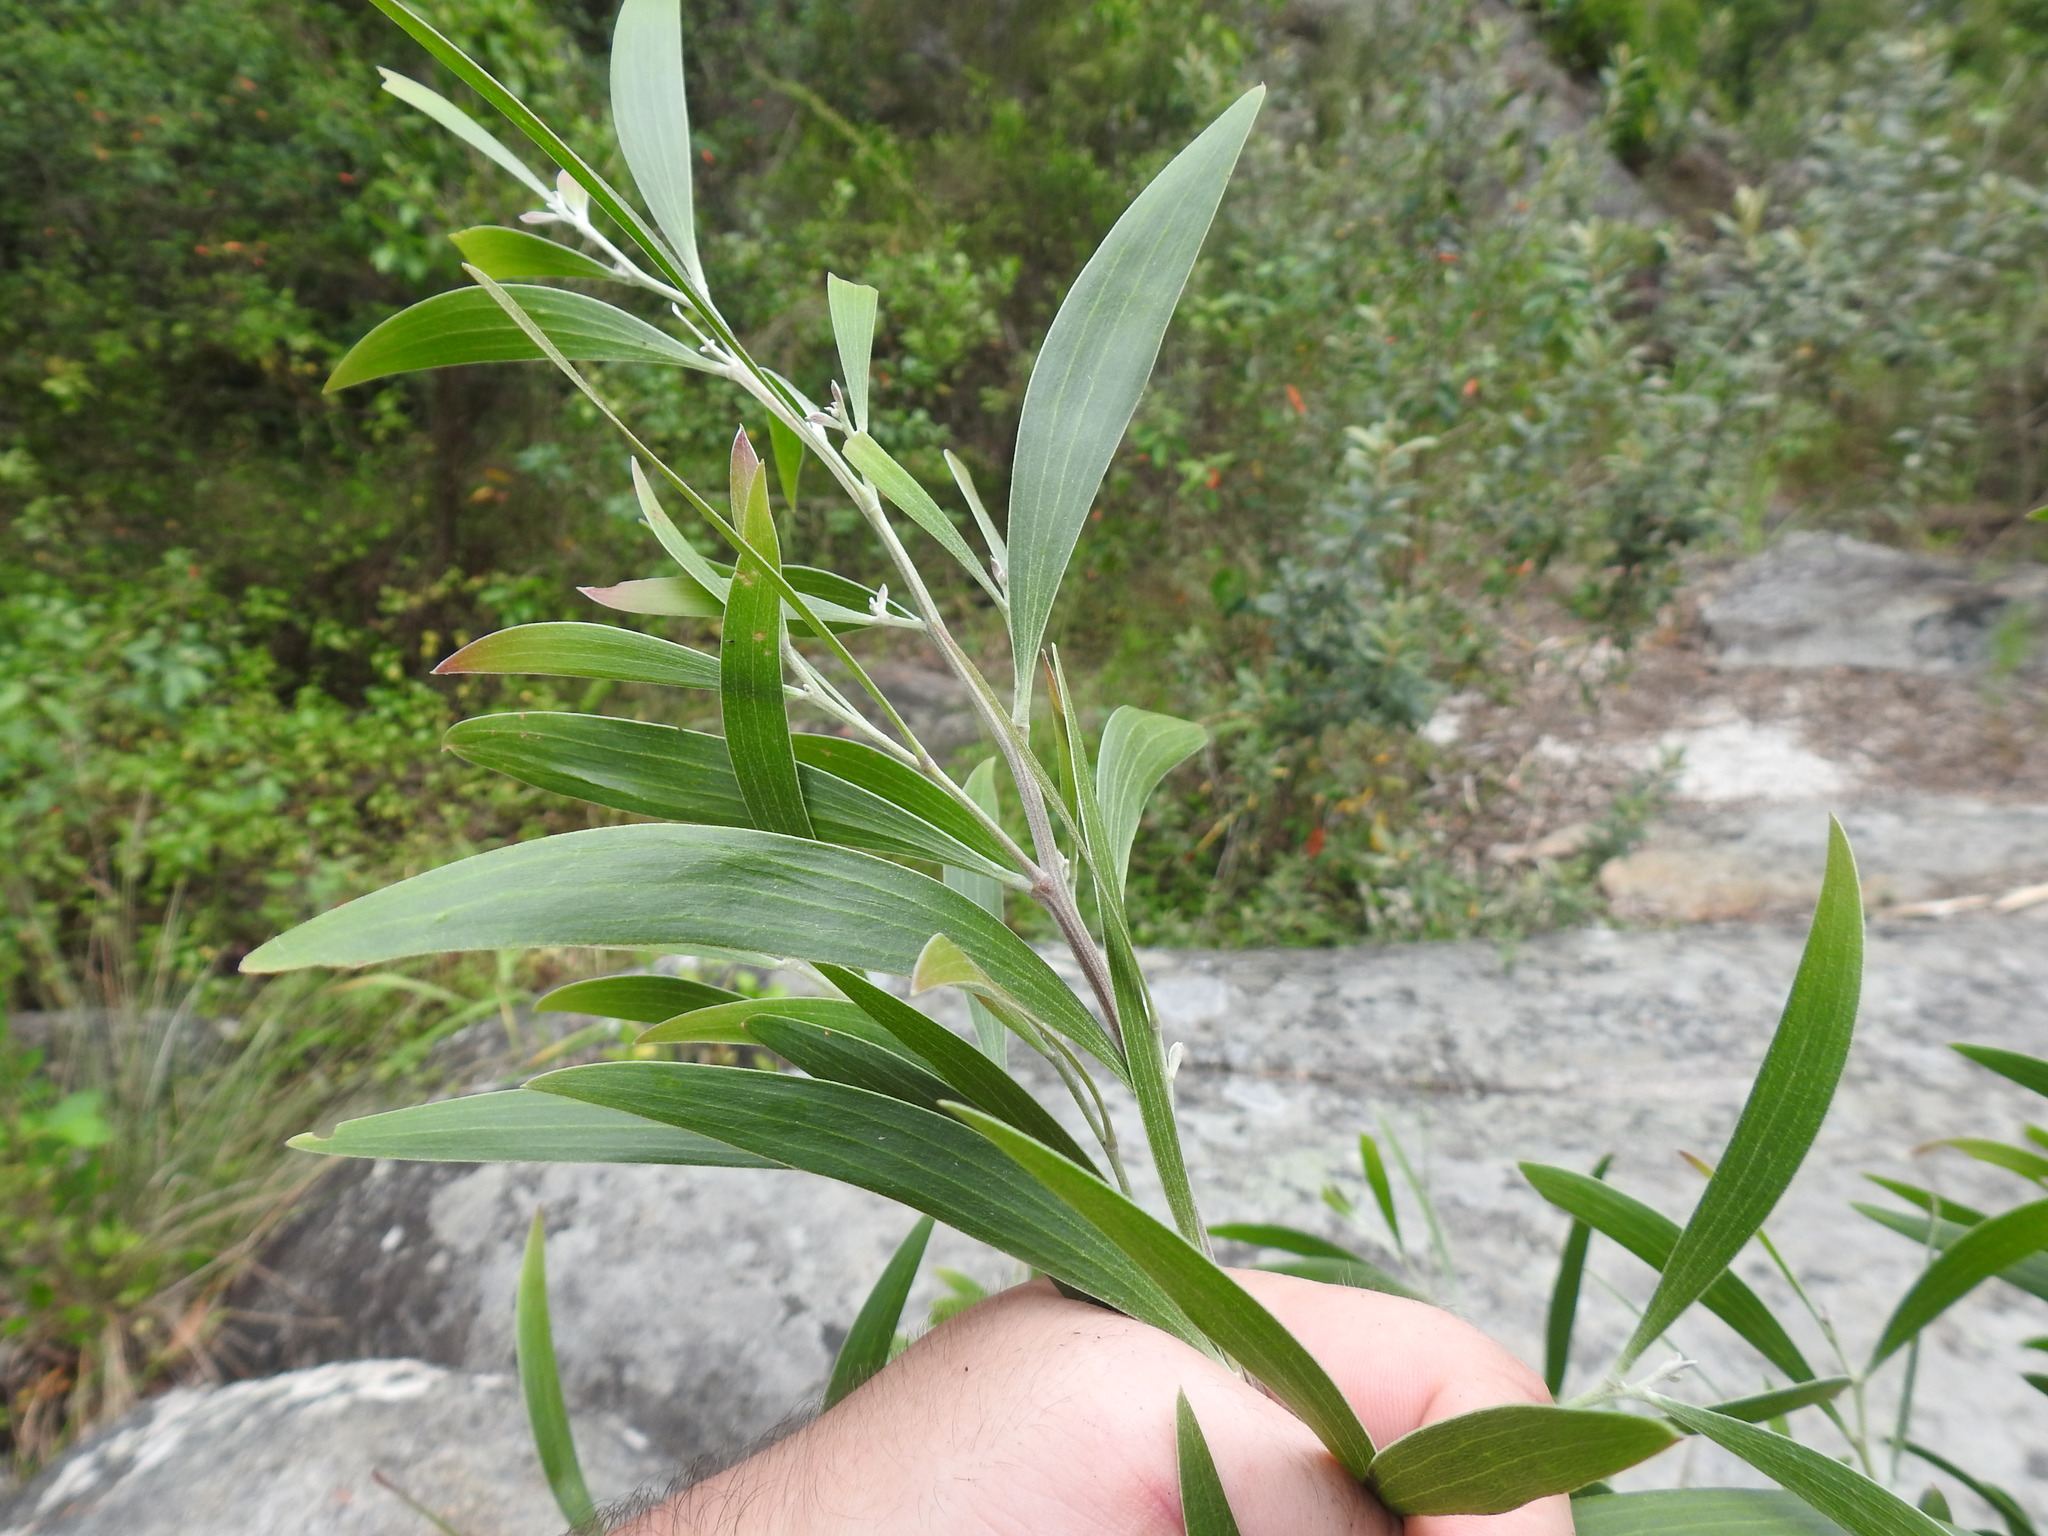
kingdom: Plantae
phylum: Tracheophyta
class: Magnoliopsida
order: Fabales
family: Fabaceae
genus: Acacia
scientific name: Acacia melanoxylon
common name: Blackwood
